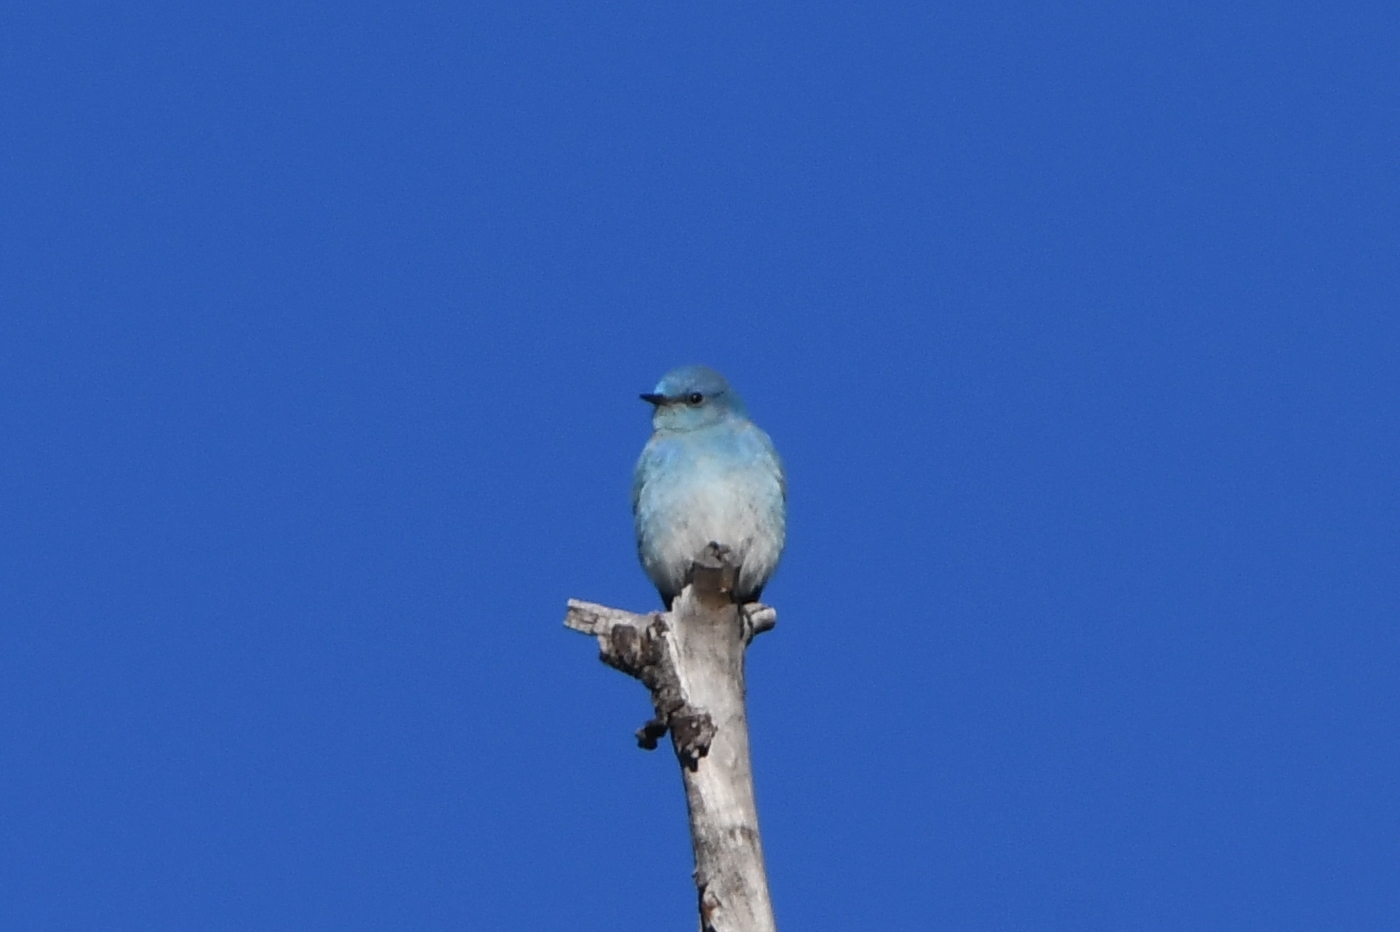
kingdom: Animalia
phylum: Chordata
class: Aves
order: Passeriformes
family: Turdidae
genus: Sialia
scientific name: Sialia currucoides
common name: Mountain bluebird
